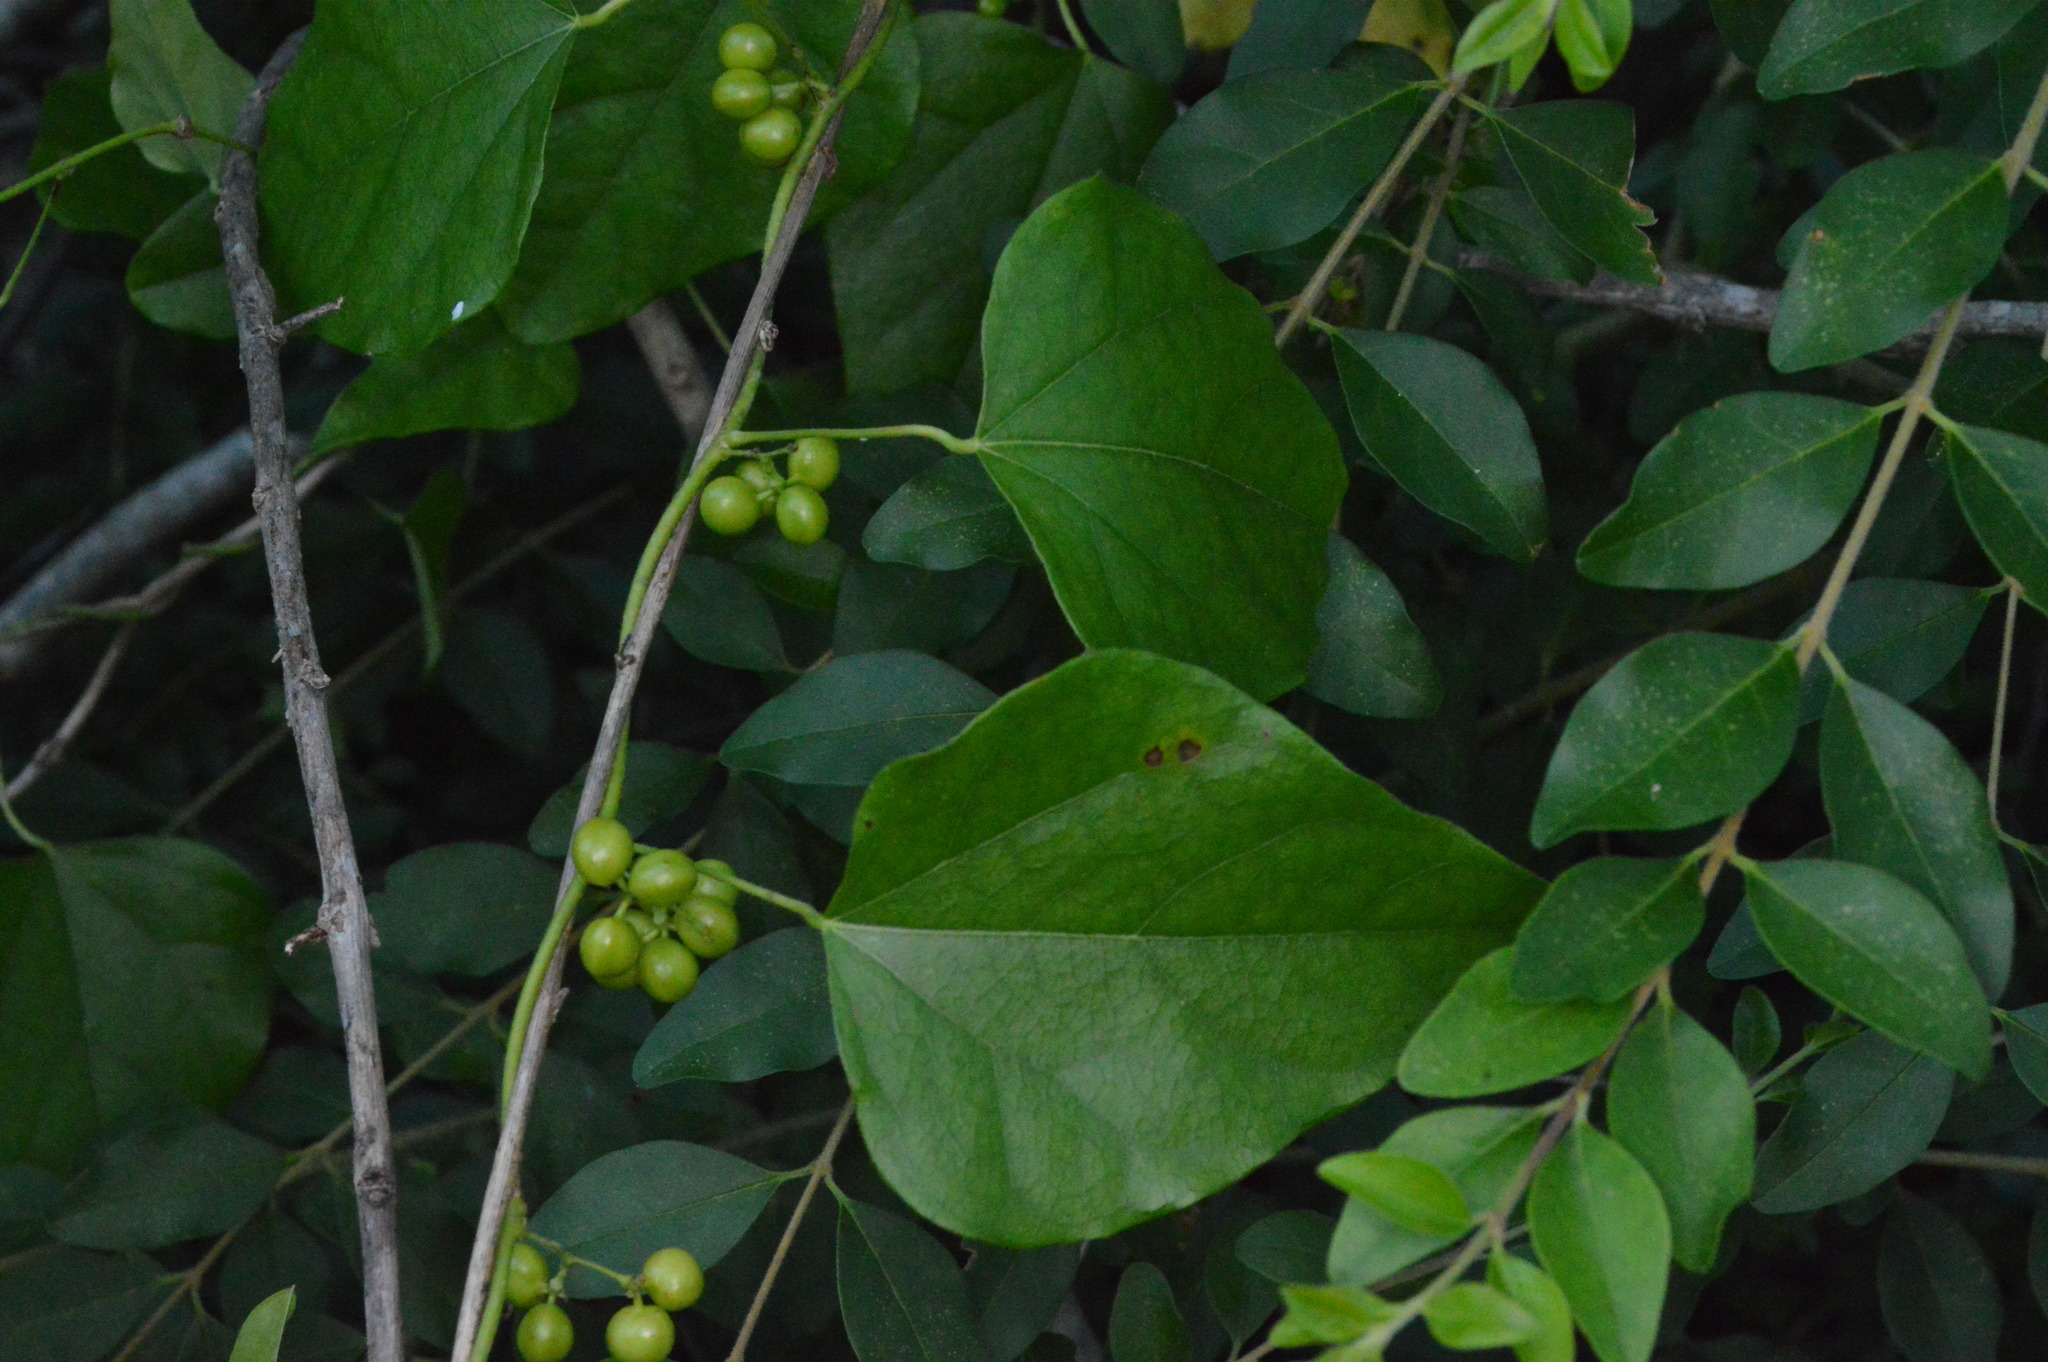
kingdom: Plantae
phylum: Tracheophyta
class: Magnoliopsida
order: Ranunculales
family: Menispermaceae
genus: Cocculus
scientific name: Cocculus carolinus
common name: Carolina moonseed
